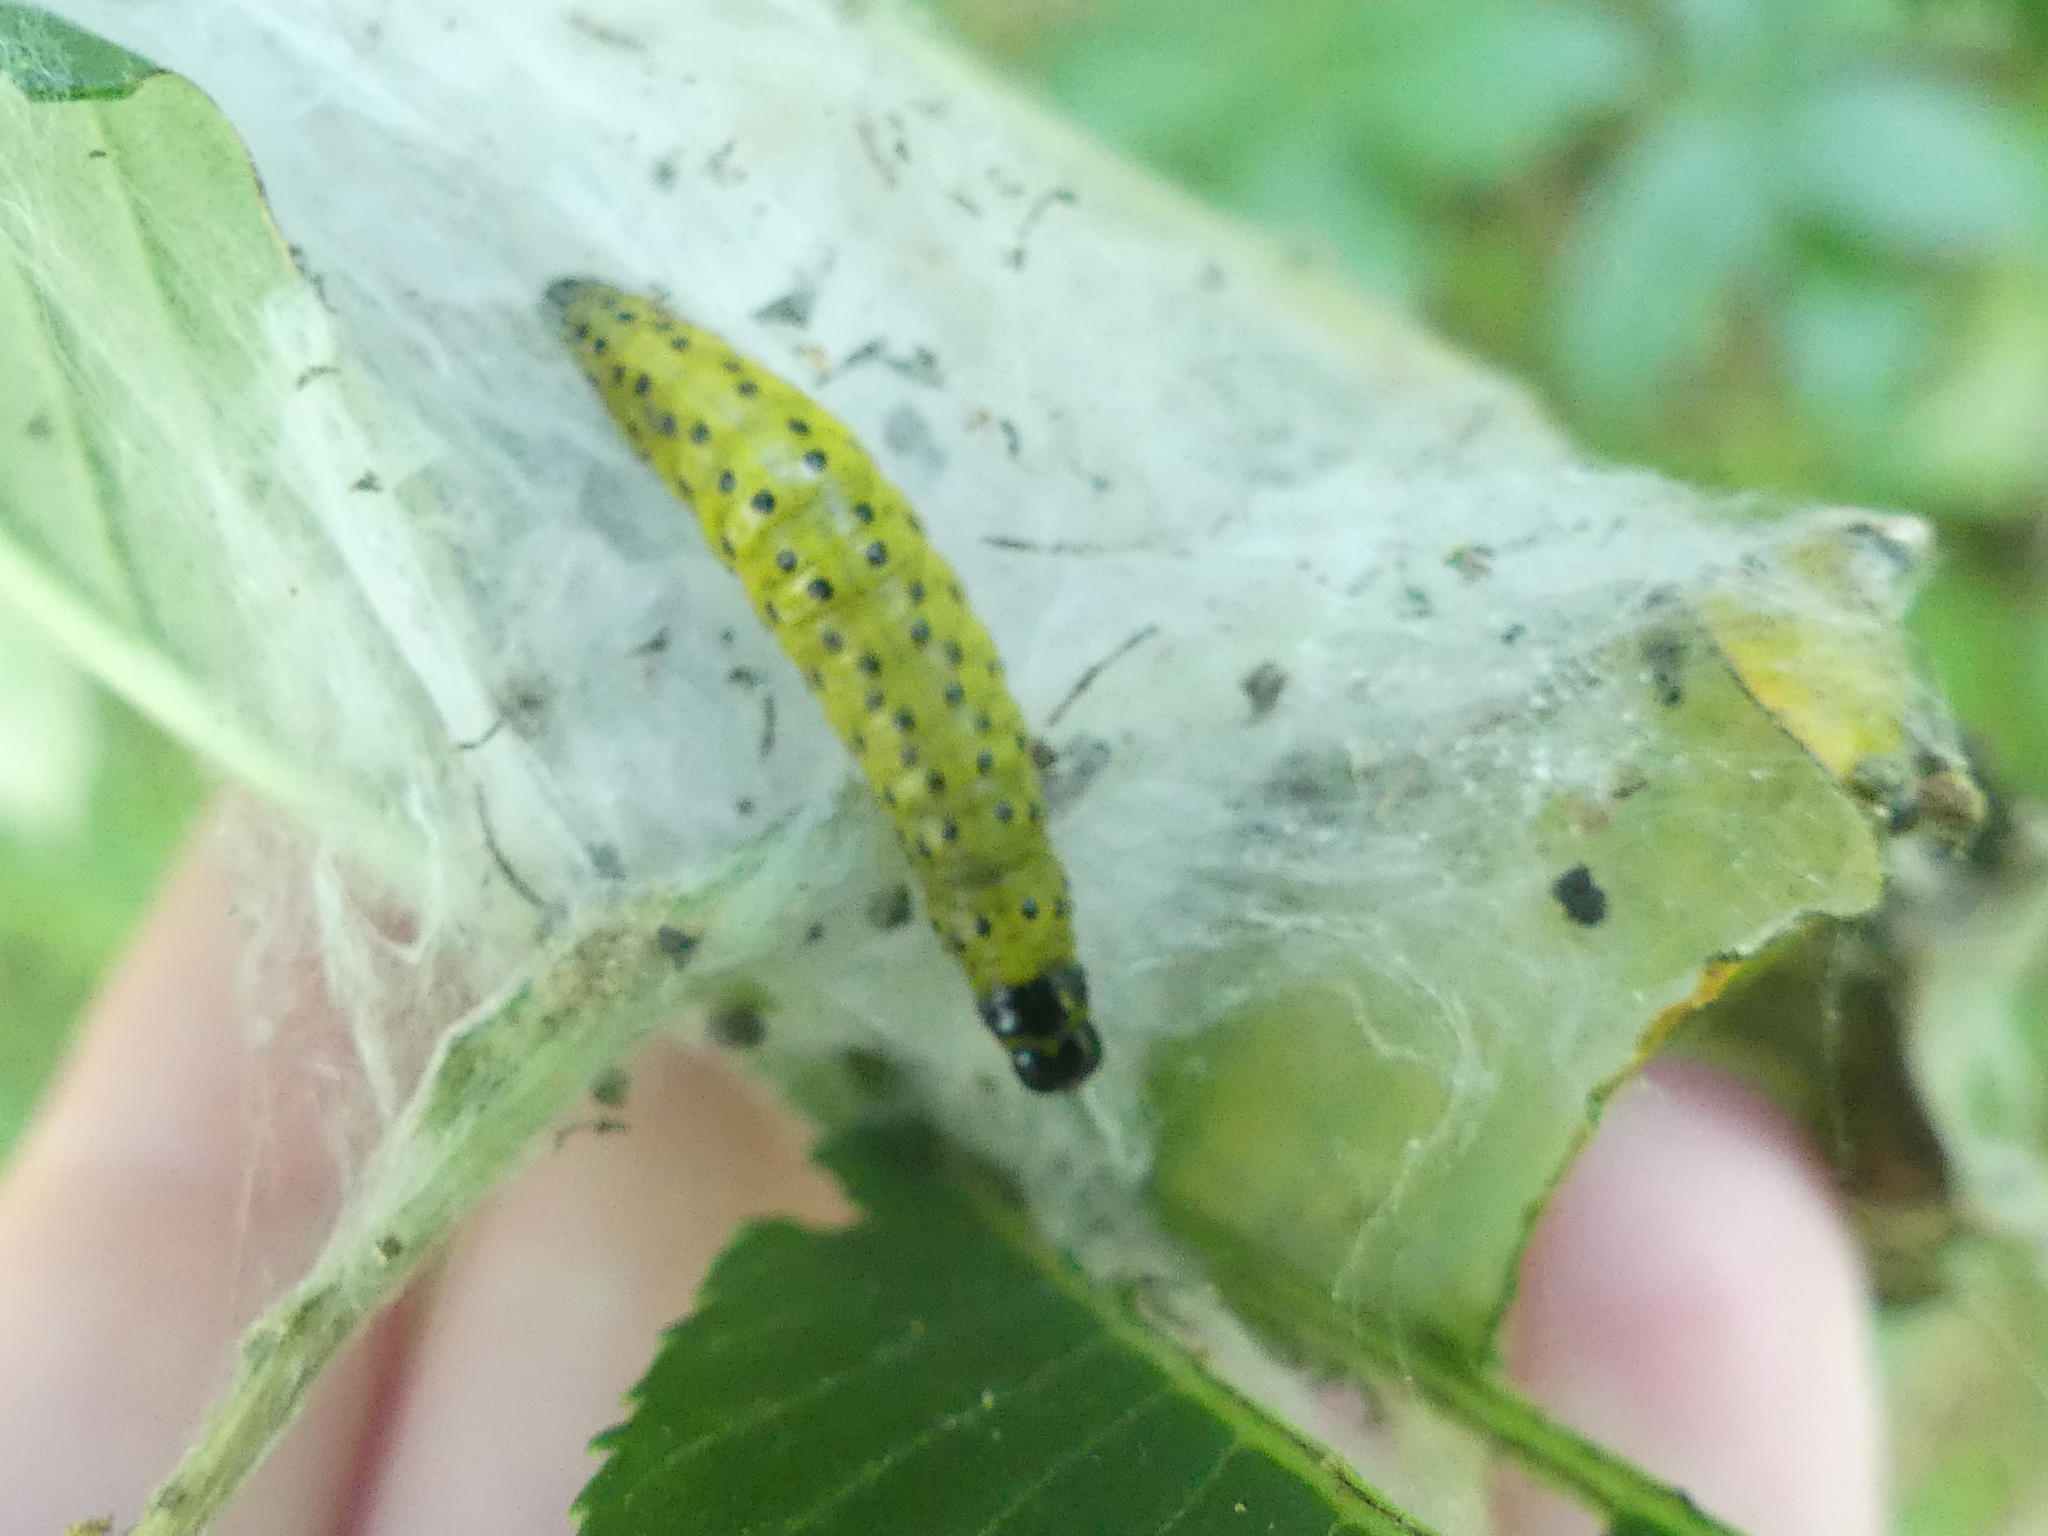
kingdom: Animalia
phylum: Arthropoda
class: Insecta
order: Lepidoptera
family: Tortricidae
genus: Archips
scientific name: Archips rileyana
